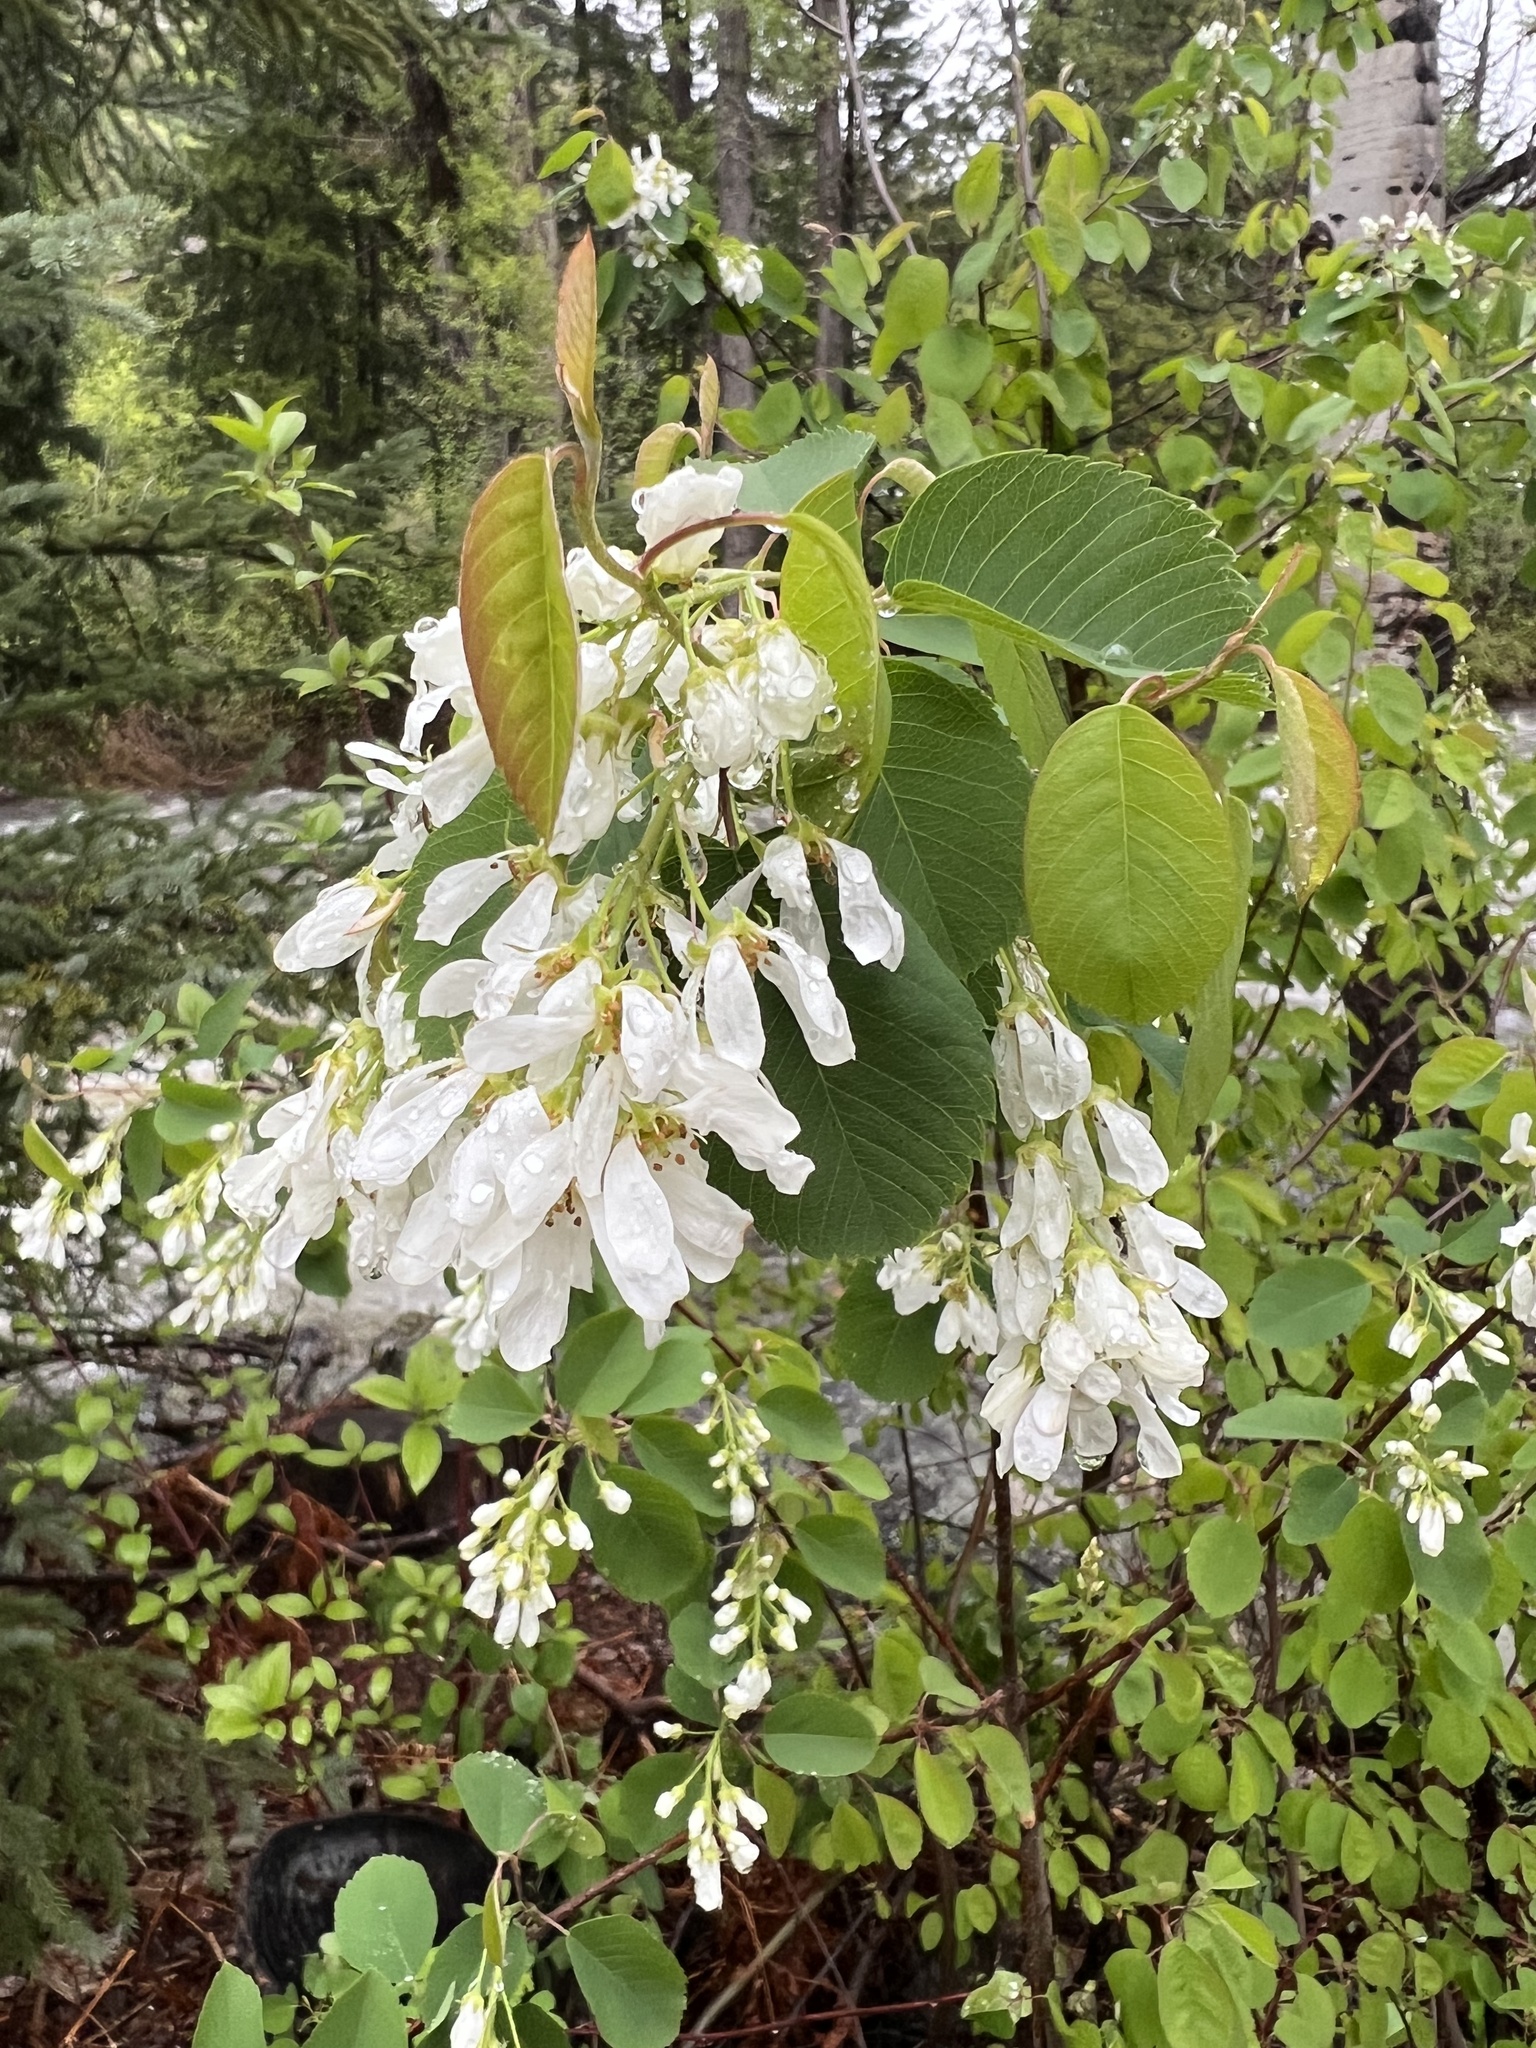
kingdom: Plantae
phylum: Tracheophyta
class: Magnoliopsida
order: Rosales
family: Rosaceae
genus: Amelanchier
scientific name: Amelanchier alnifolia
